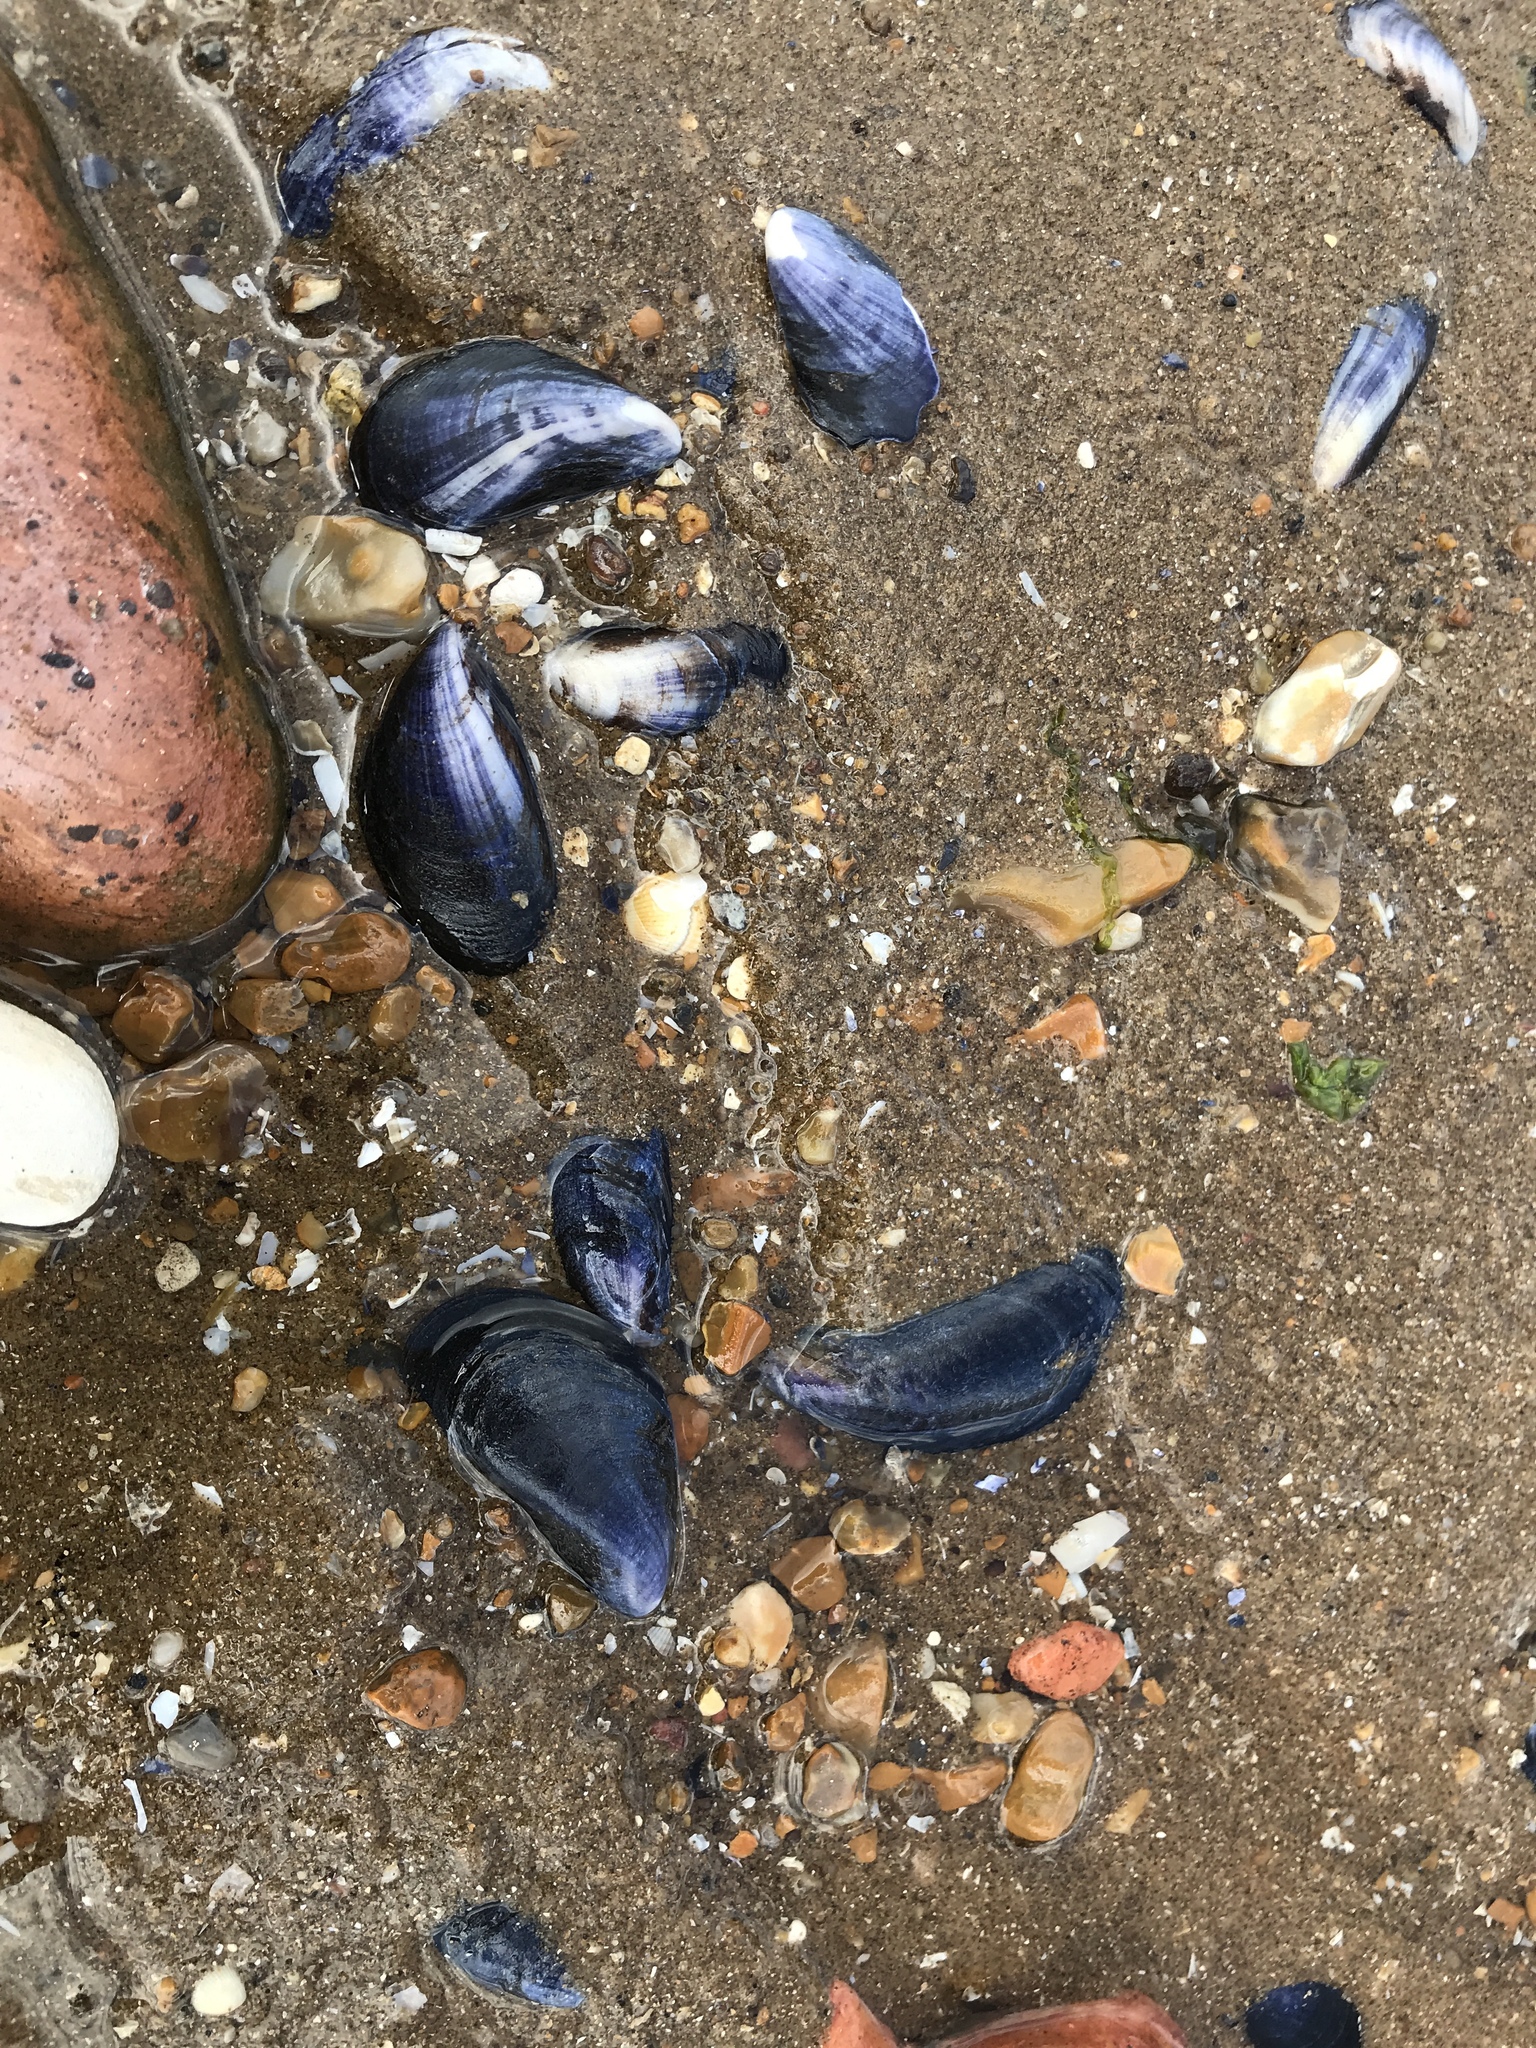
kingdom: Animalia
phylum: Mollusca
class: Bivalvia
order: Mytilida
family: Mytilidae
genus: Mytilus
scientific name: Mytilus edulis
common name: Blue mussel
